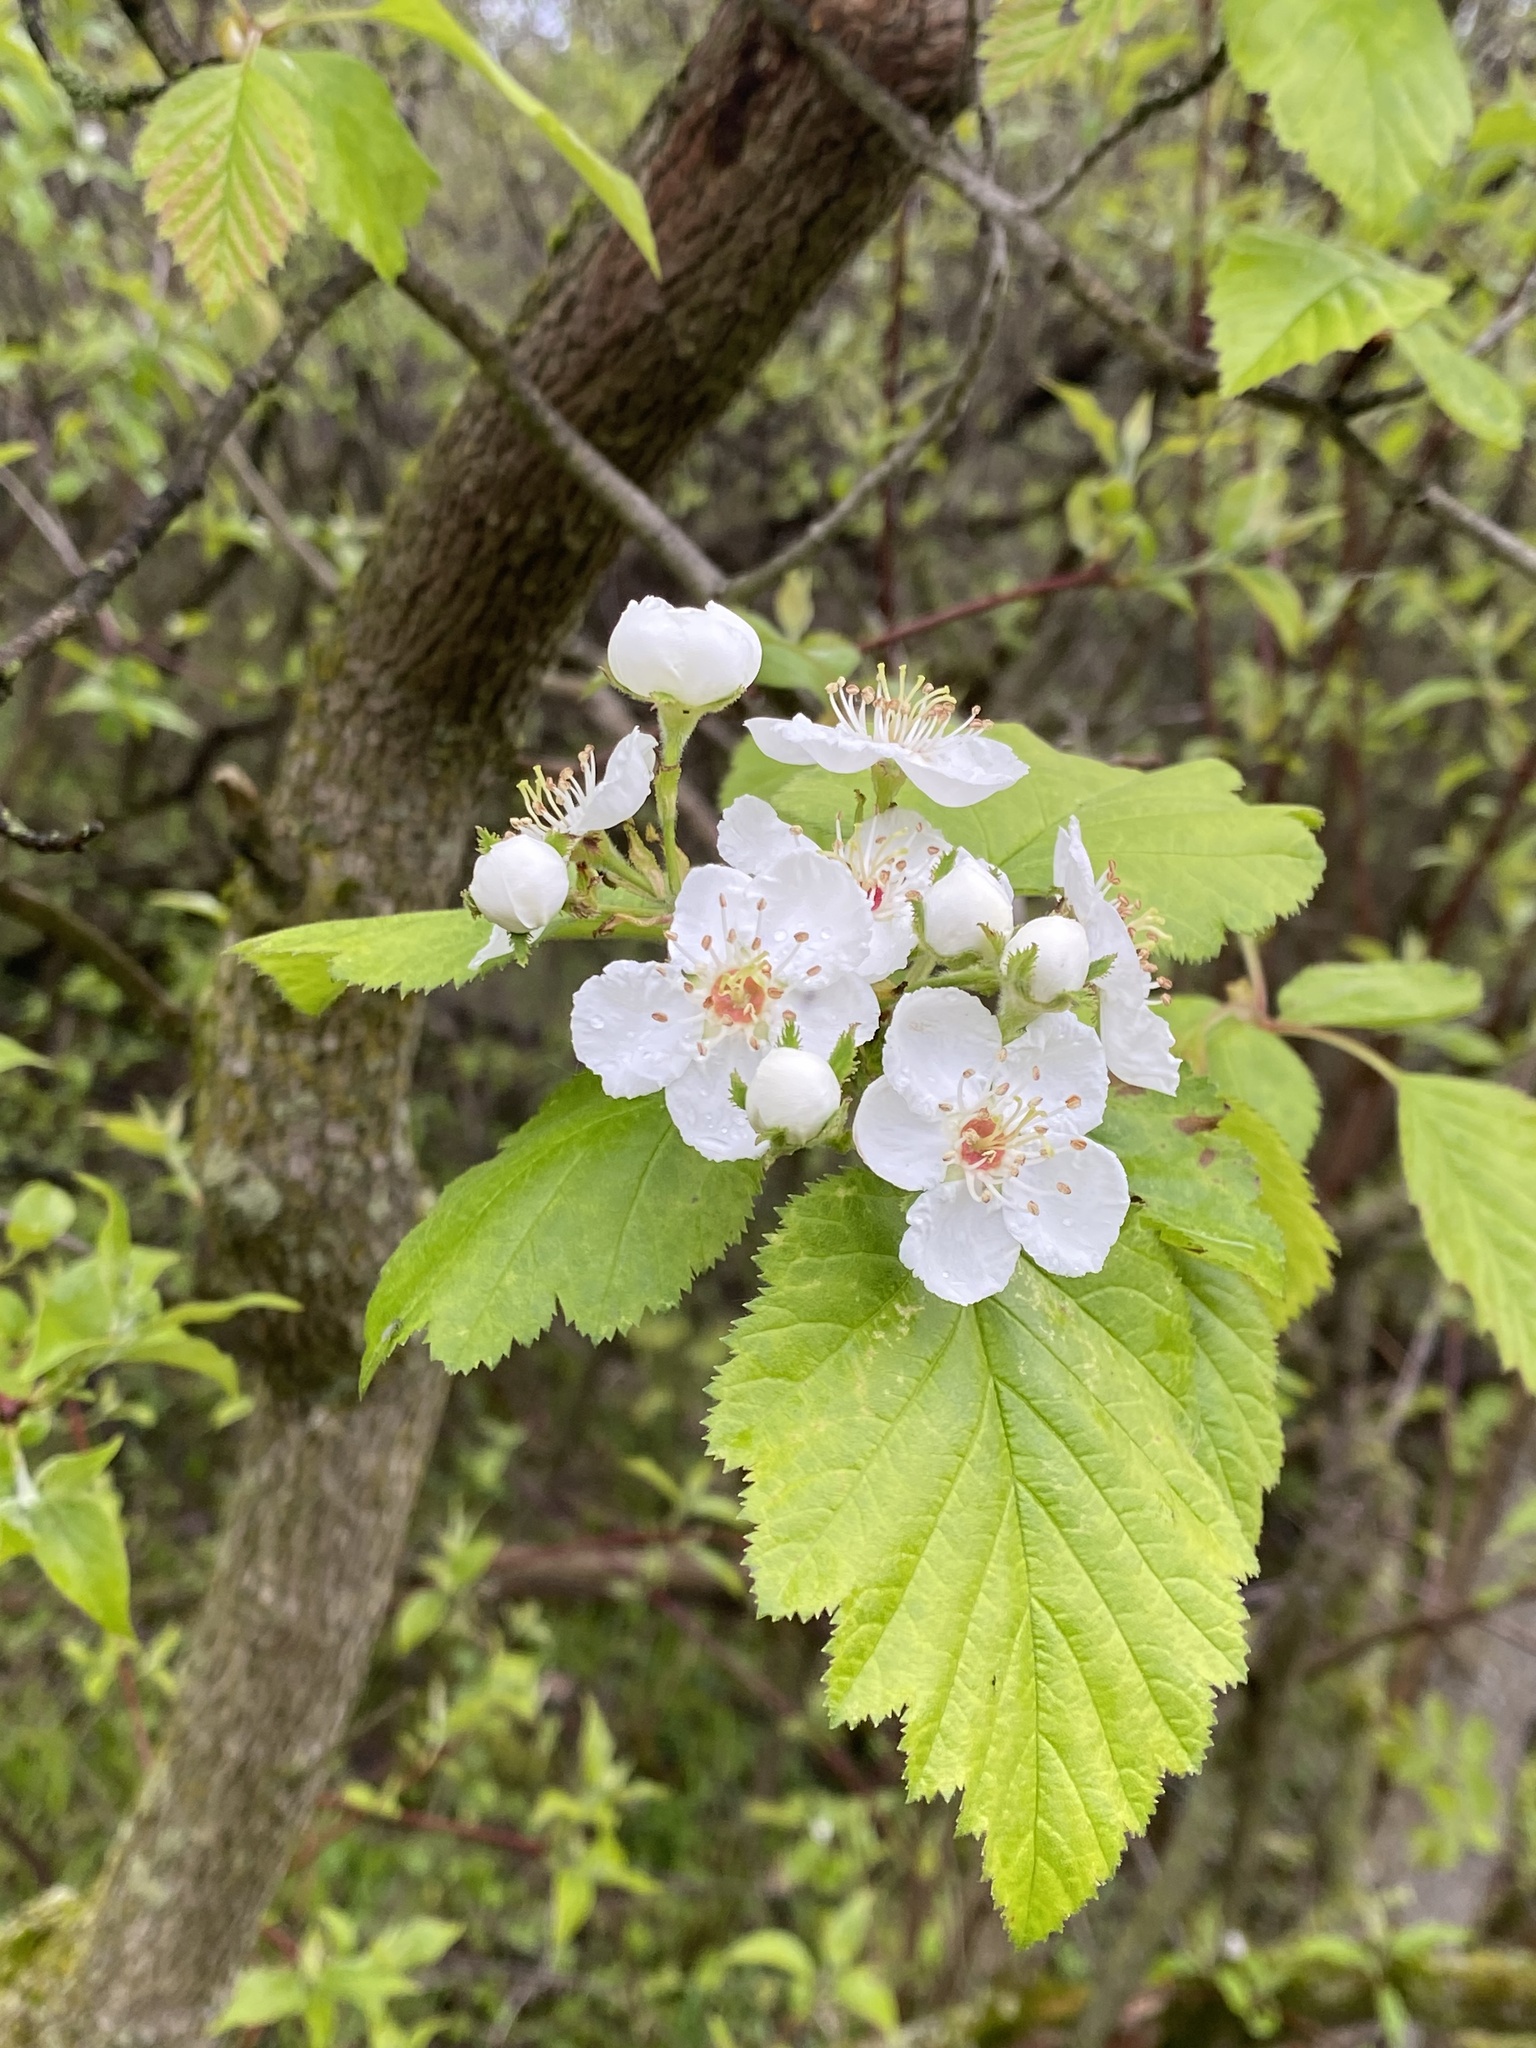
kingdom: Plantae
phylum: Tracheophyta
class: Magnoliopsida
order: Rosales
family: Rosaceae
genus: Crataegus
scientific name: Crataegus mollis
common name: Downy hawthorn
